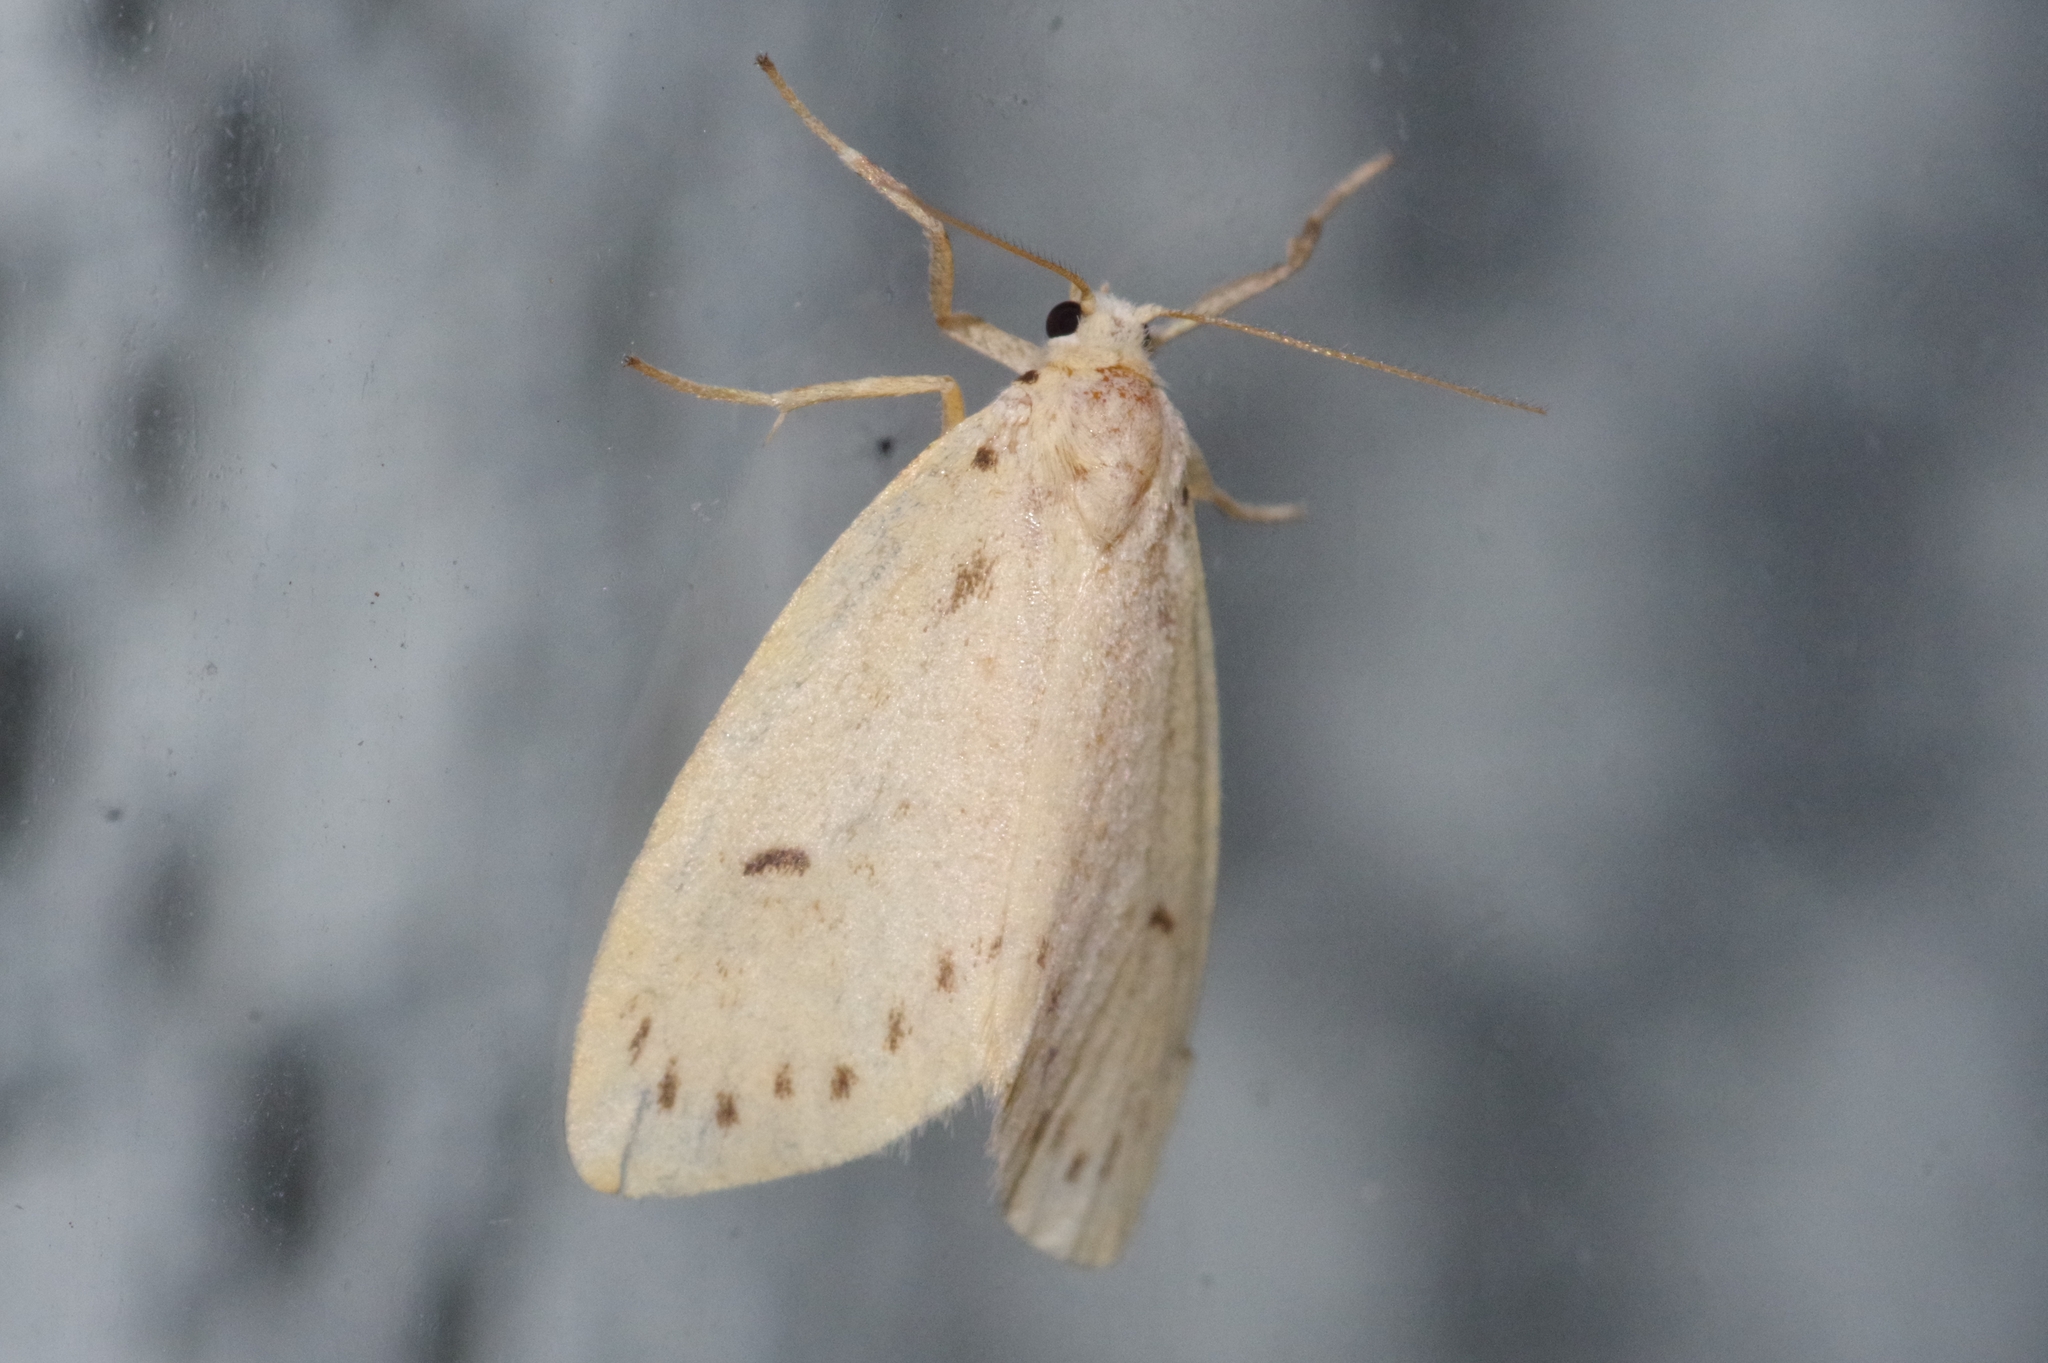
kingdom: Animalia
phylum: Arthropoda
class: Insecta
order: Lepidoptera
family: Erebidae
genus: Miltochrista
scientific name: Miltochrista calamina
